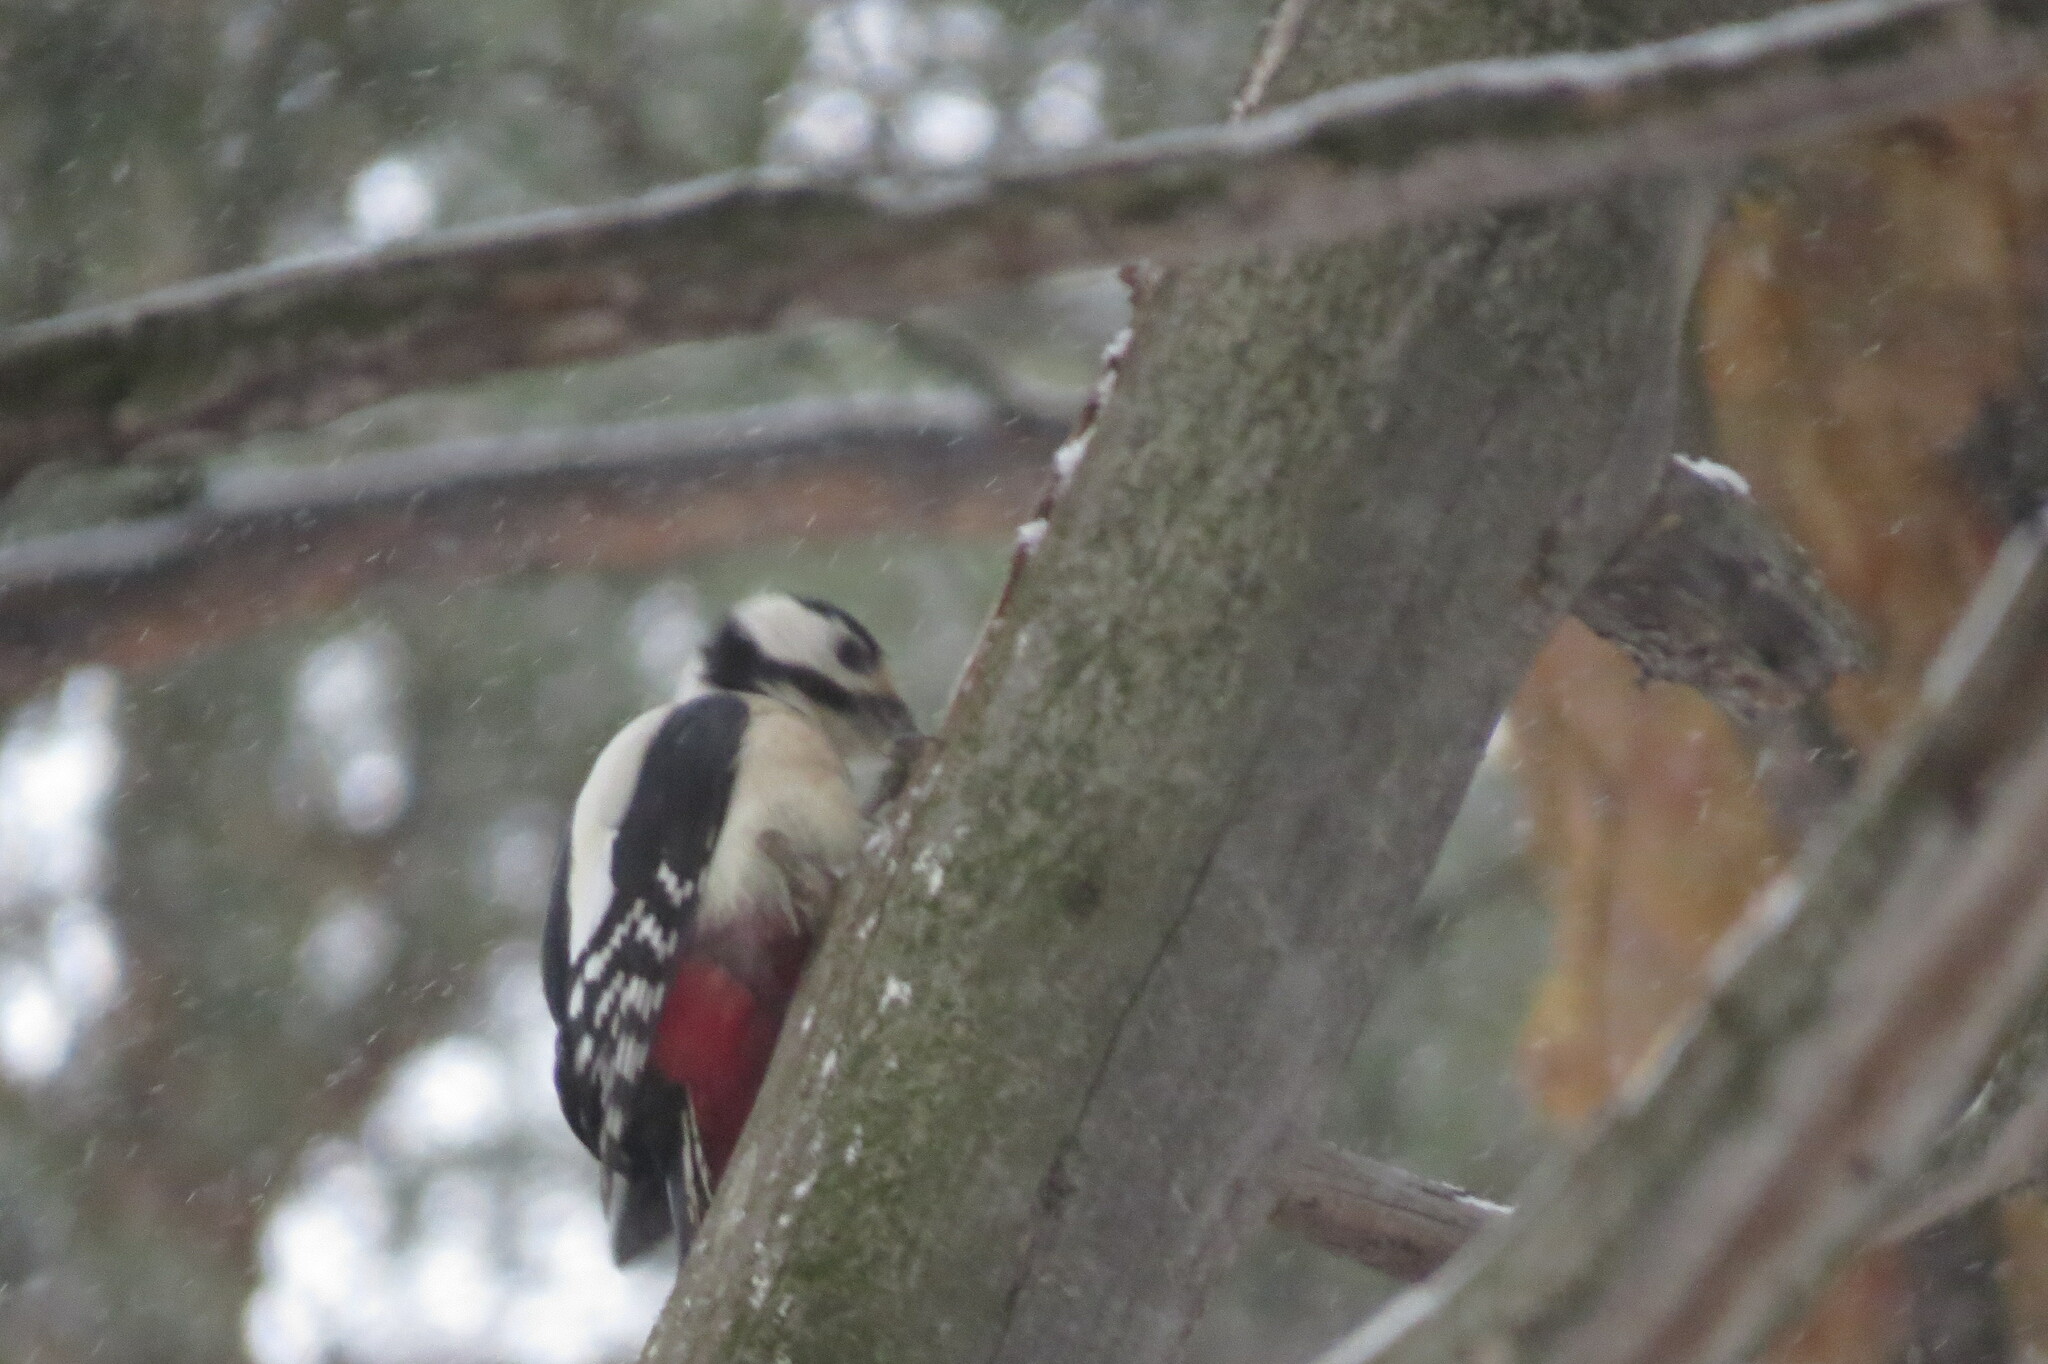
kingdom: Animalia
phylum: Chordata
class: Aves
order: Piciformes
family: Picidae
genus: Dendrocopos
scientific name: Dendrocopos major
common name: Great spotted woodpecker
